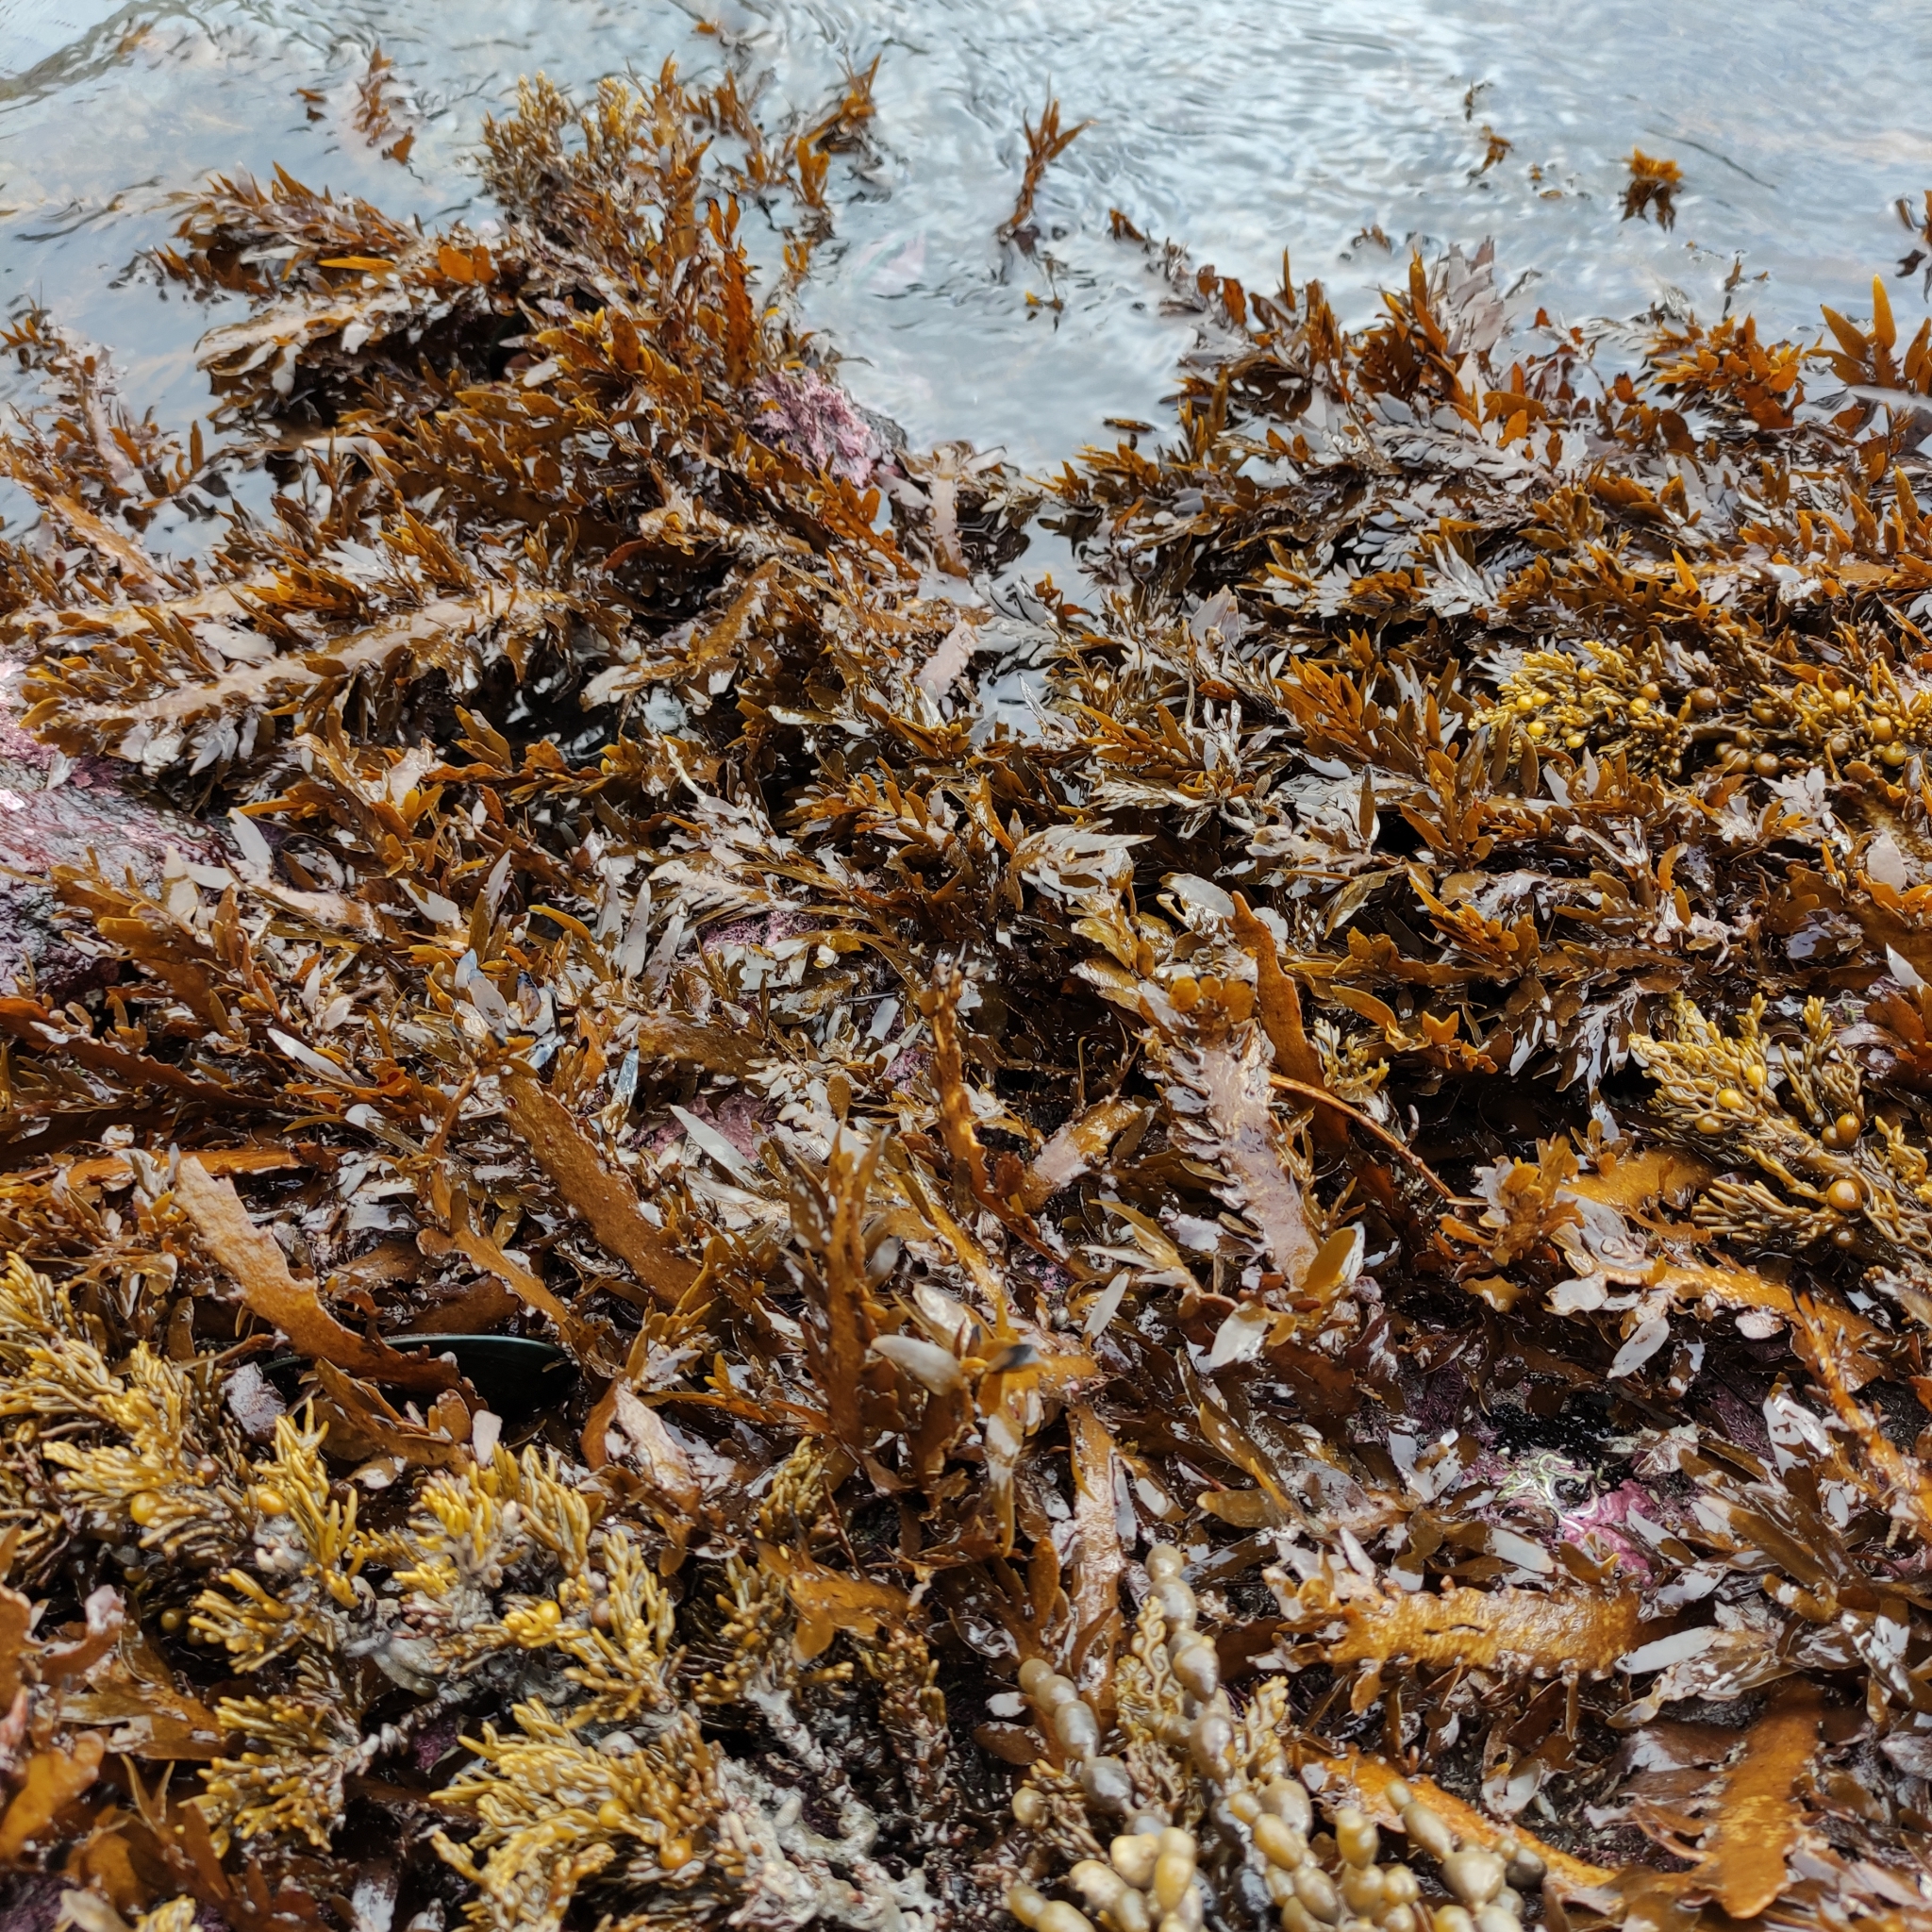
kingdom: Chromista
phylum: Ochrophyta
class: Phaeophyceae
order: Fucales
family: Sargassaceae
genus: Carpophyllum
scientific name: Carpophyllum maschalocarpum
